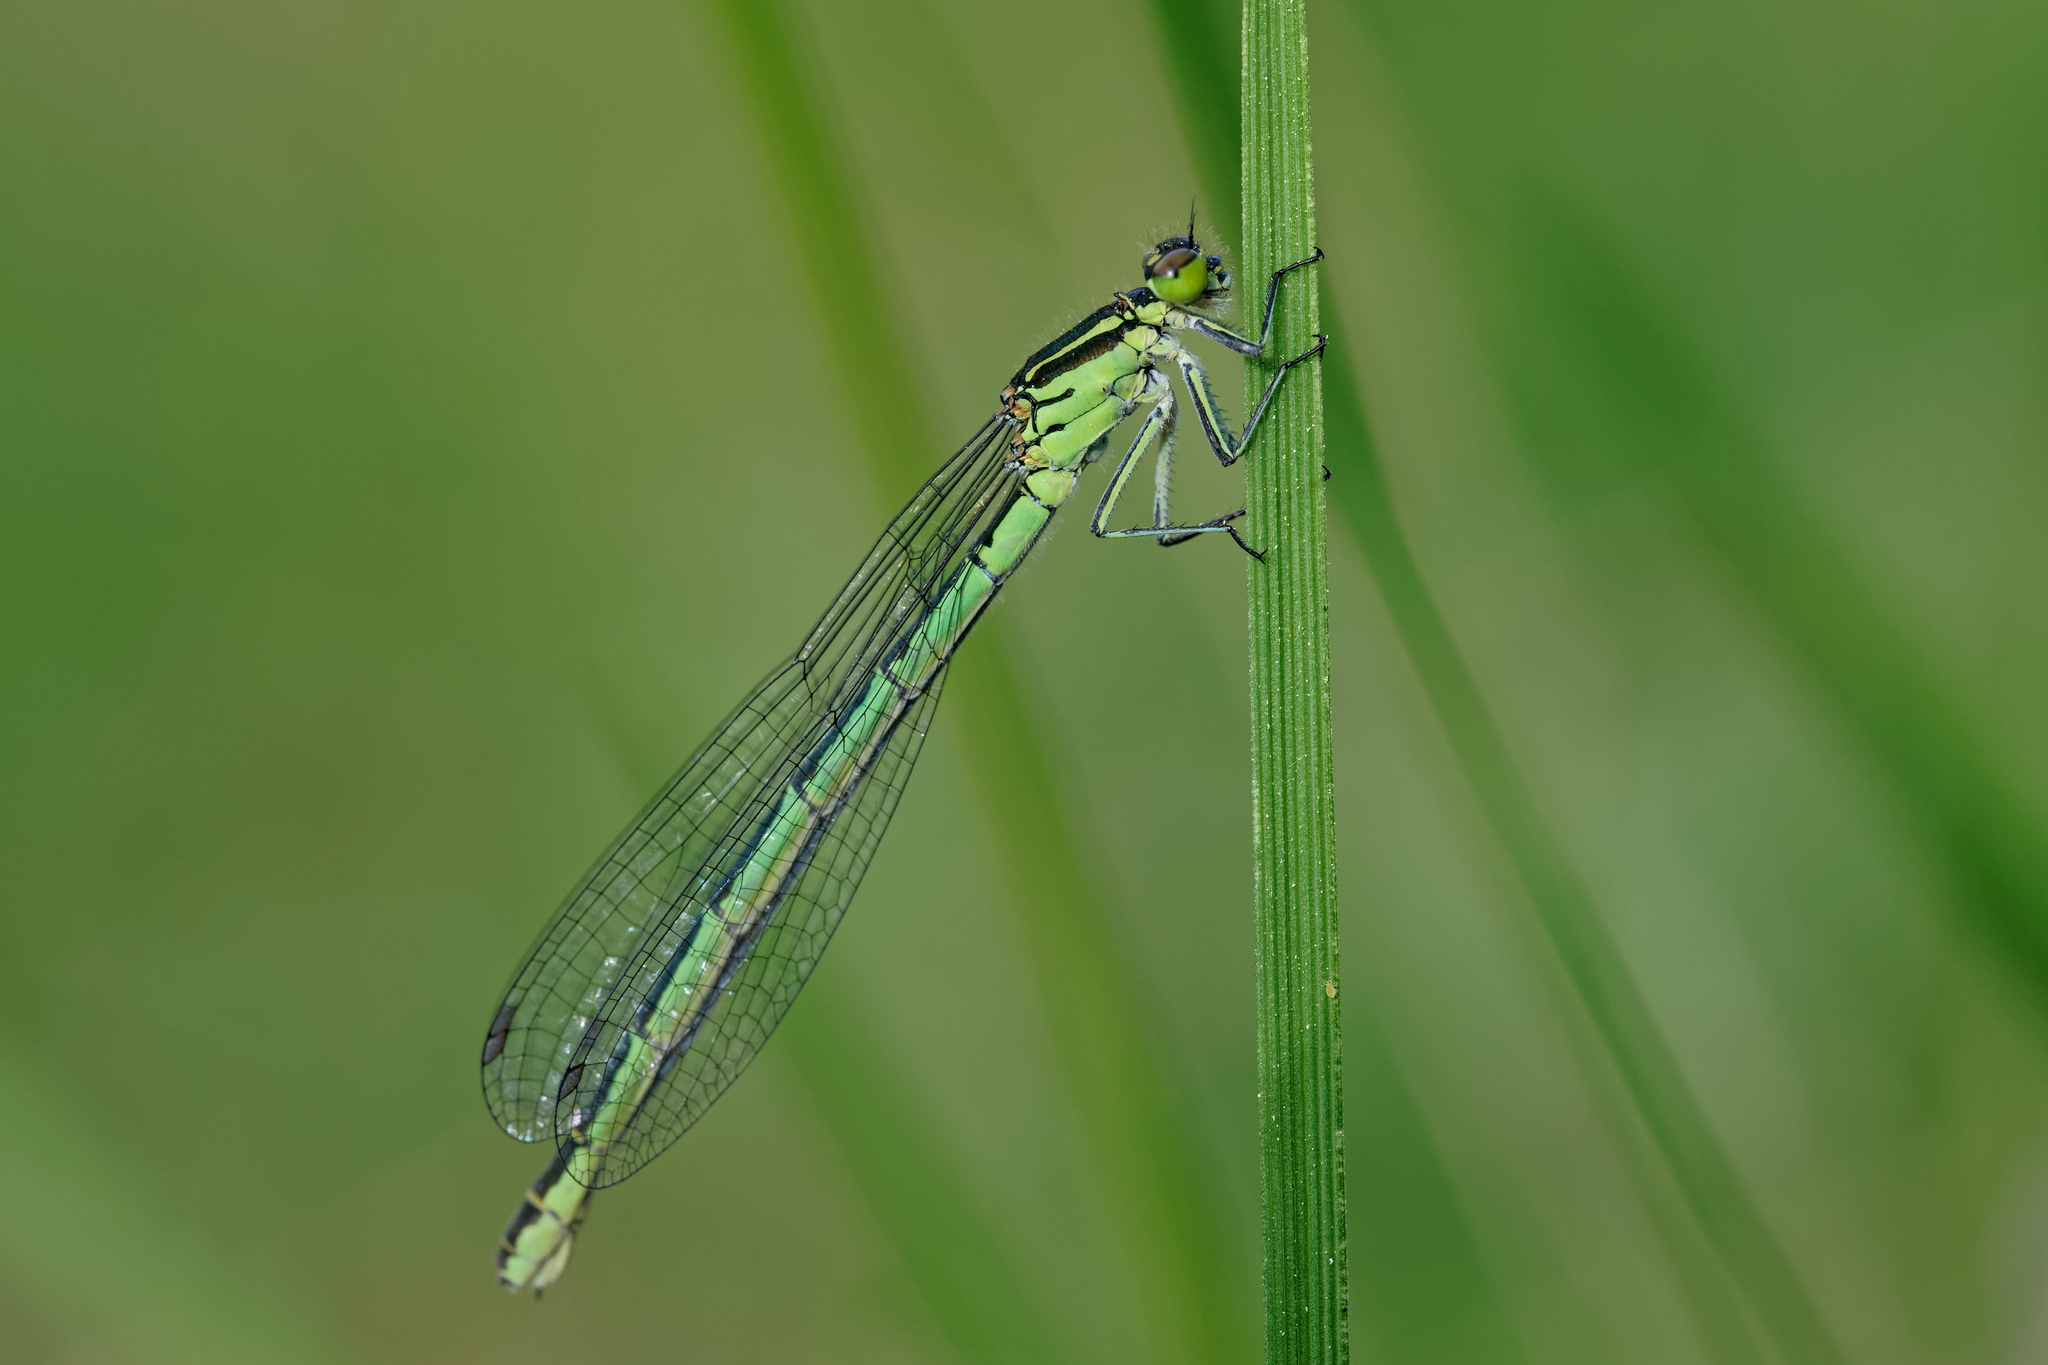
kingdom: Animalia
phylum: Arthropoda
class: Insecta
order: Odonata
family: Coenagrionidae
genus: Coenagrion
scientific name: Coenagrion hastulatum
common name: Spearhead bluet
